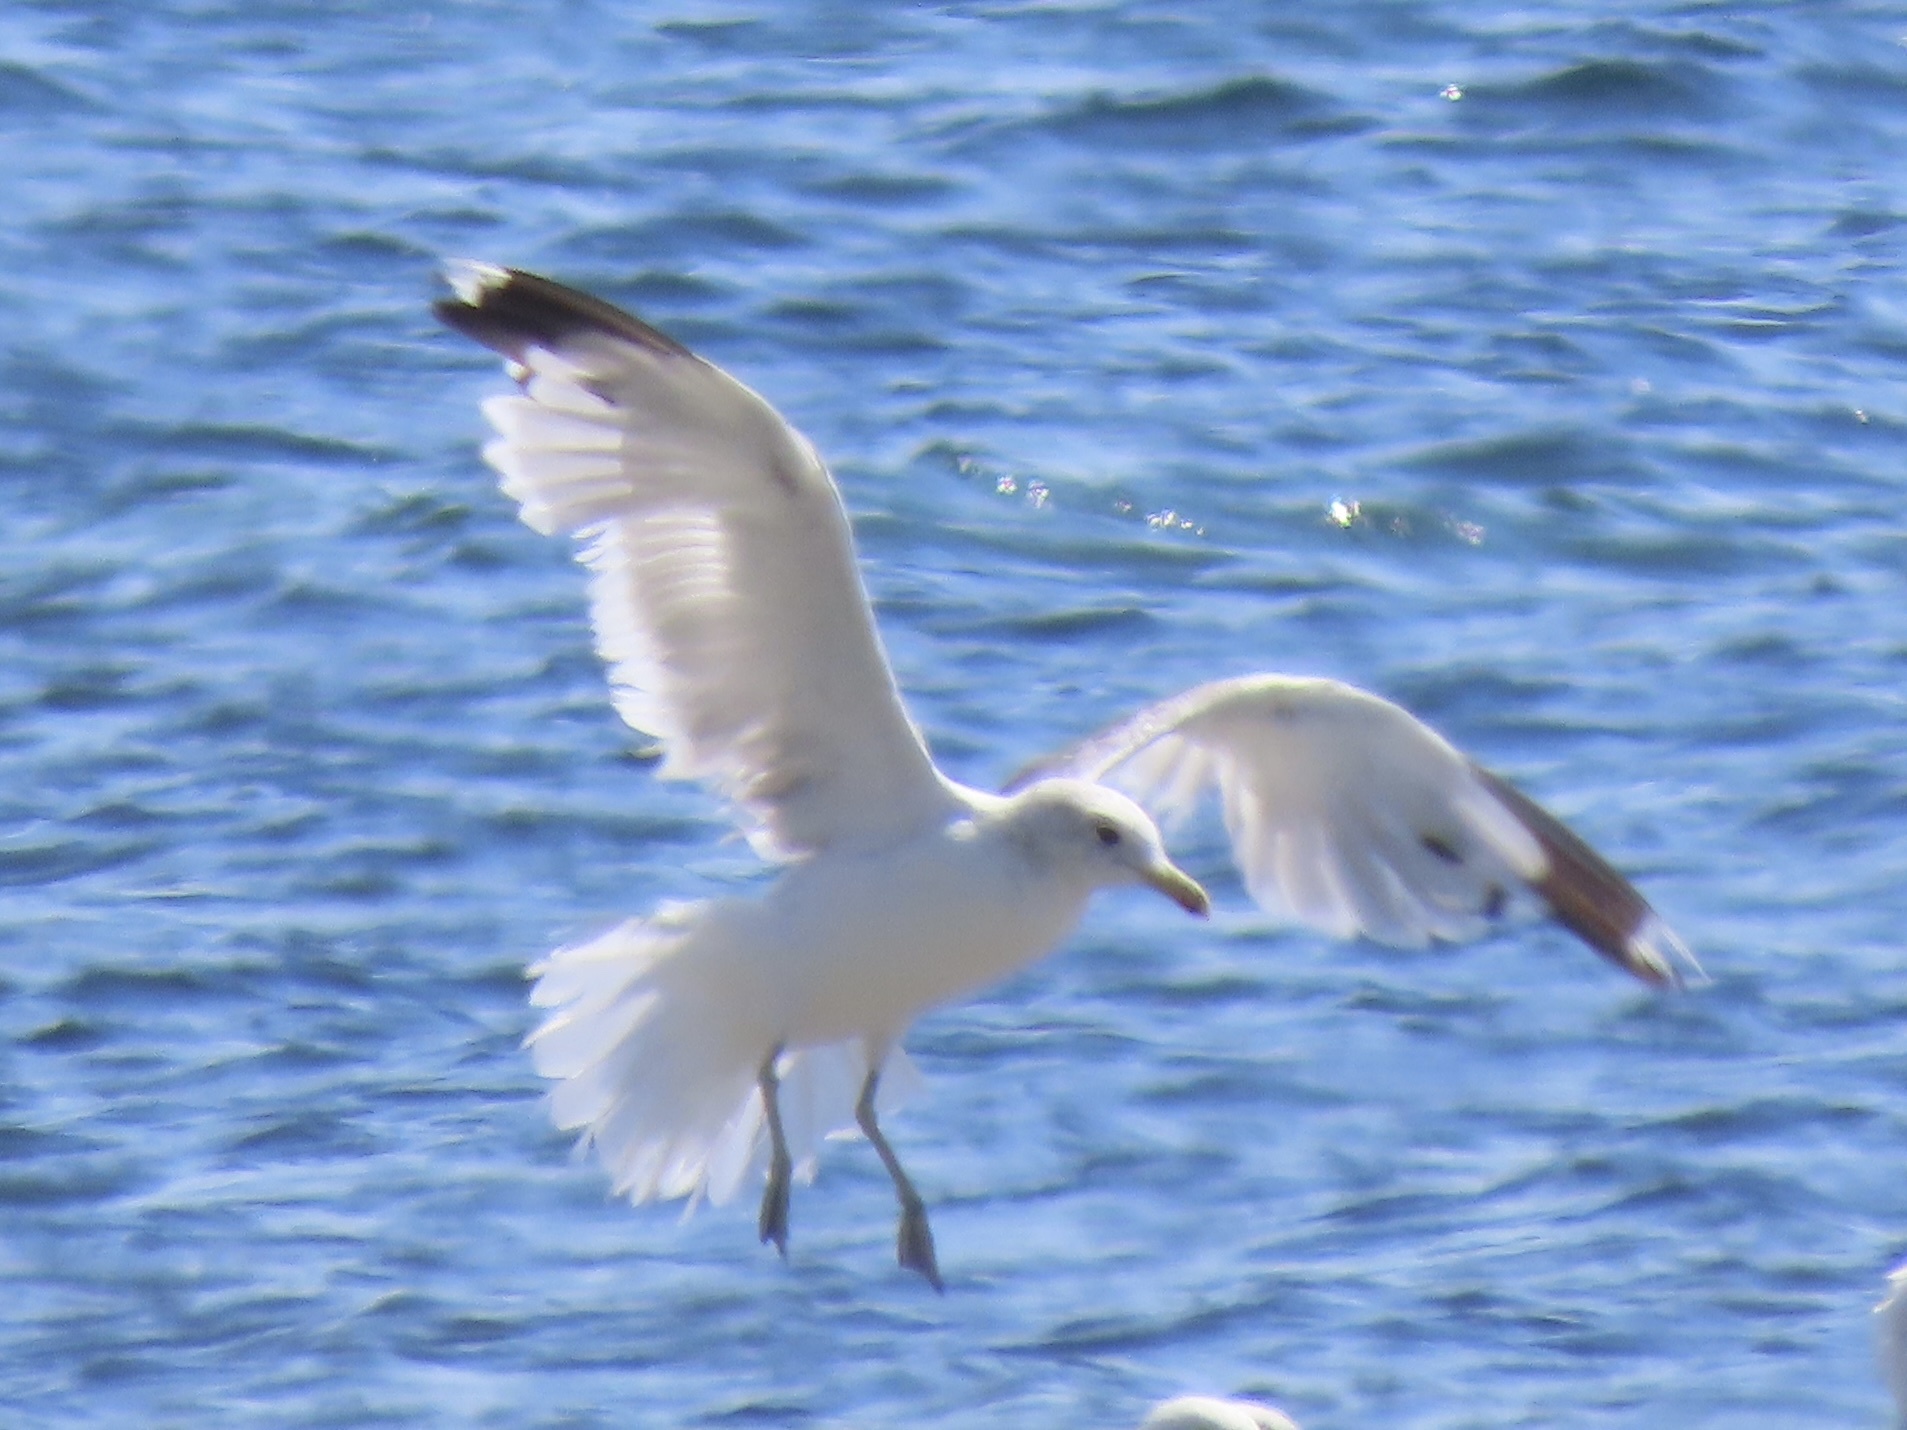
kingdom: Animalia
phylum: Chordata
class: Aves
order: Charadriiformes
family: Laridae
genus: Larus
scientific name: Larus californicus
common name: California gull
